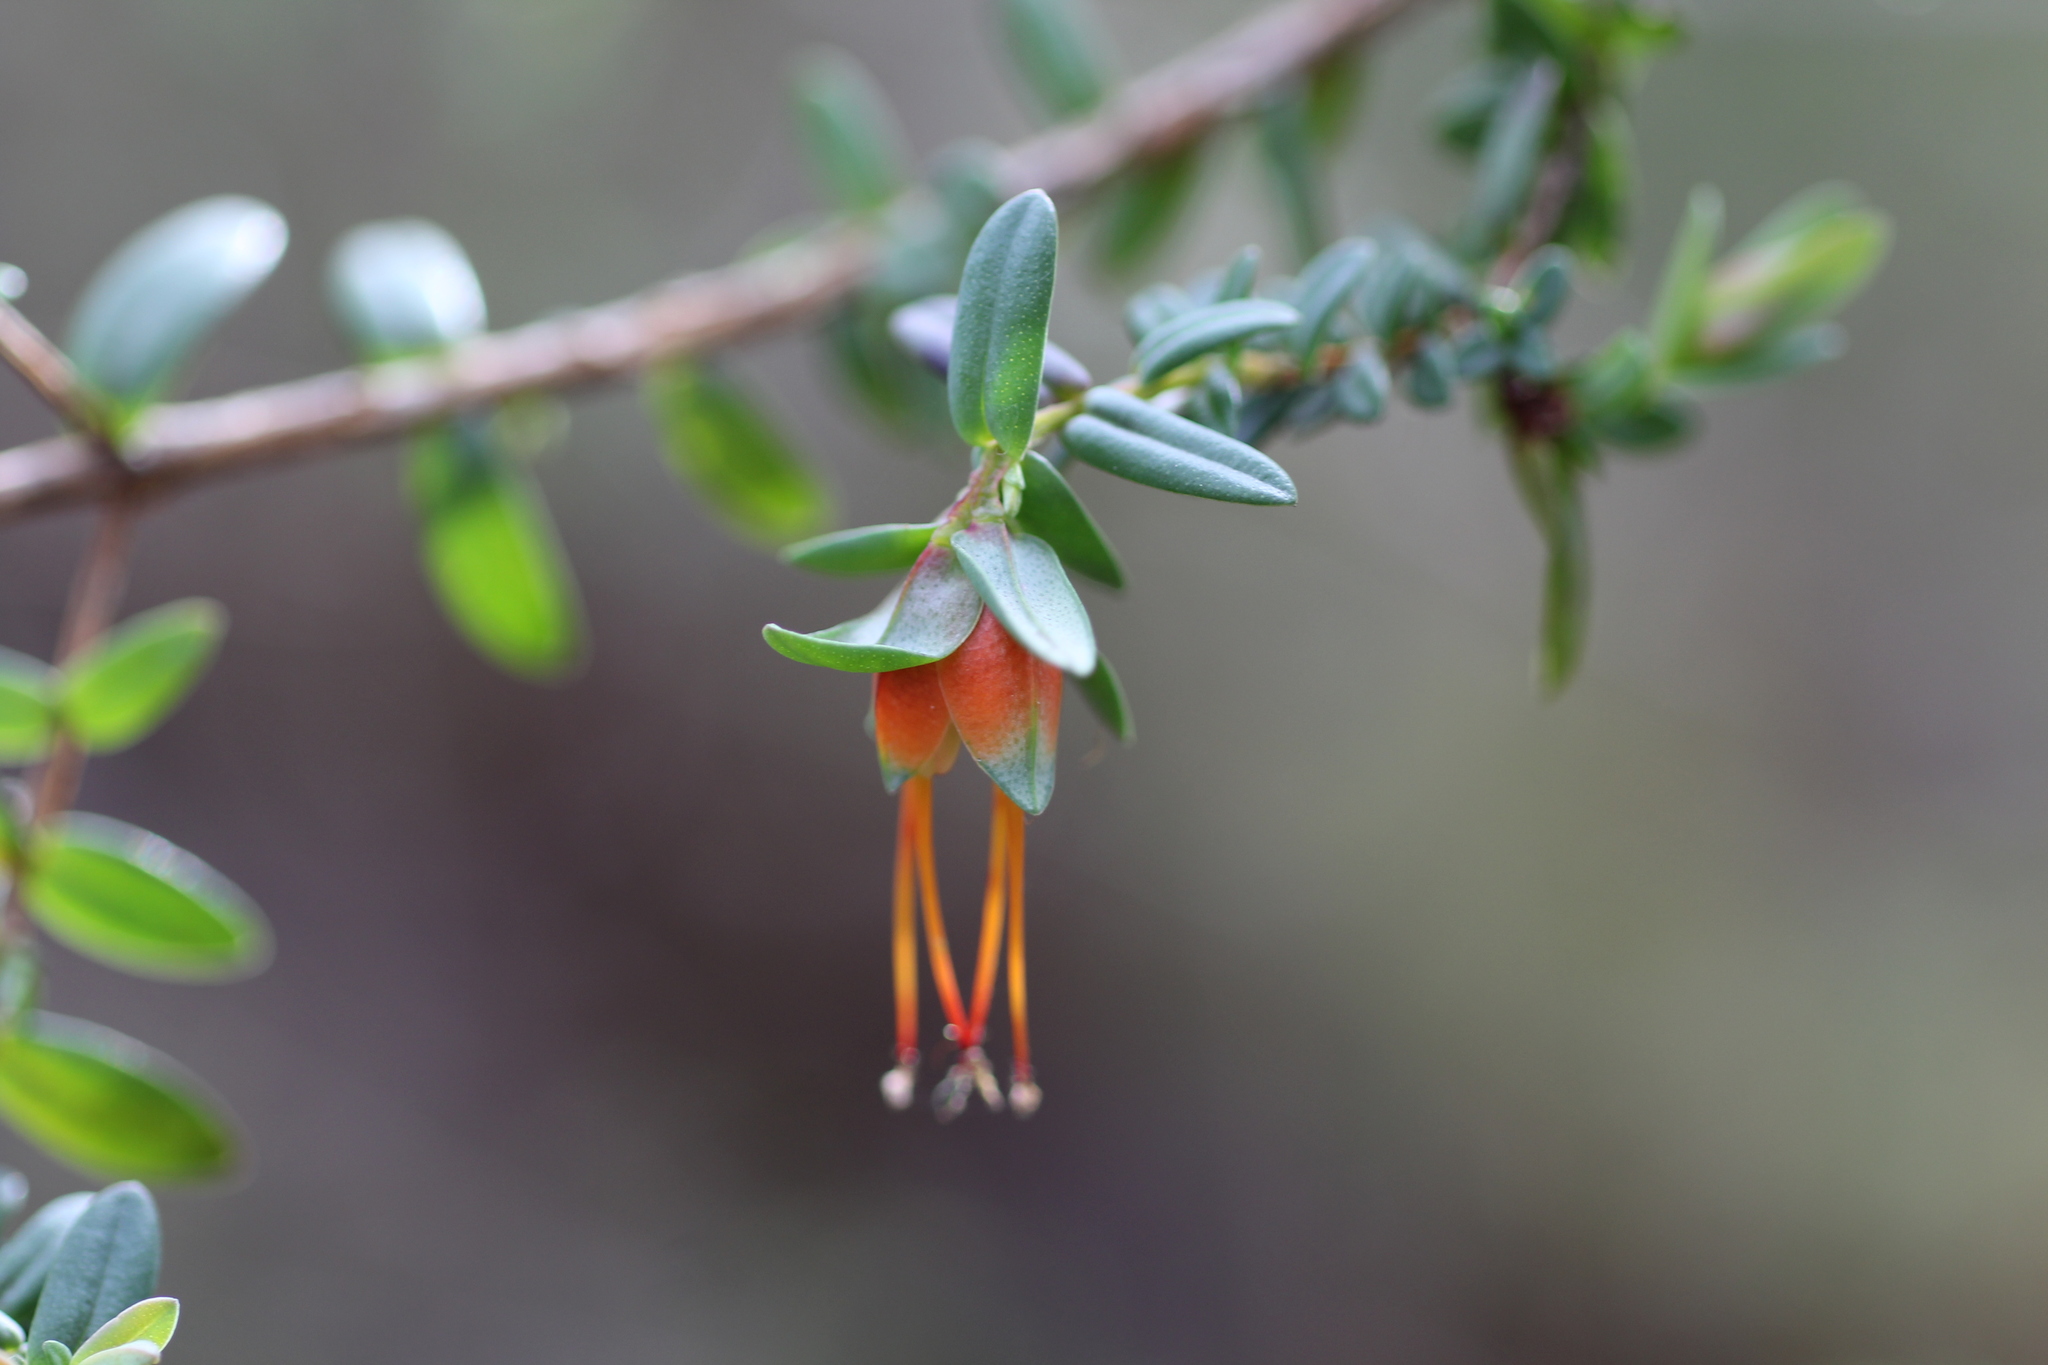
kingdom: Plantae
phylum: Tracheophyta
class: Magnoliopsida
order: Myrtales
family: Myrtaceae
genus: Darwinia
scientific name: Darwinia citriodora
